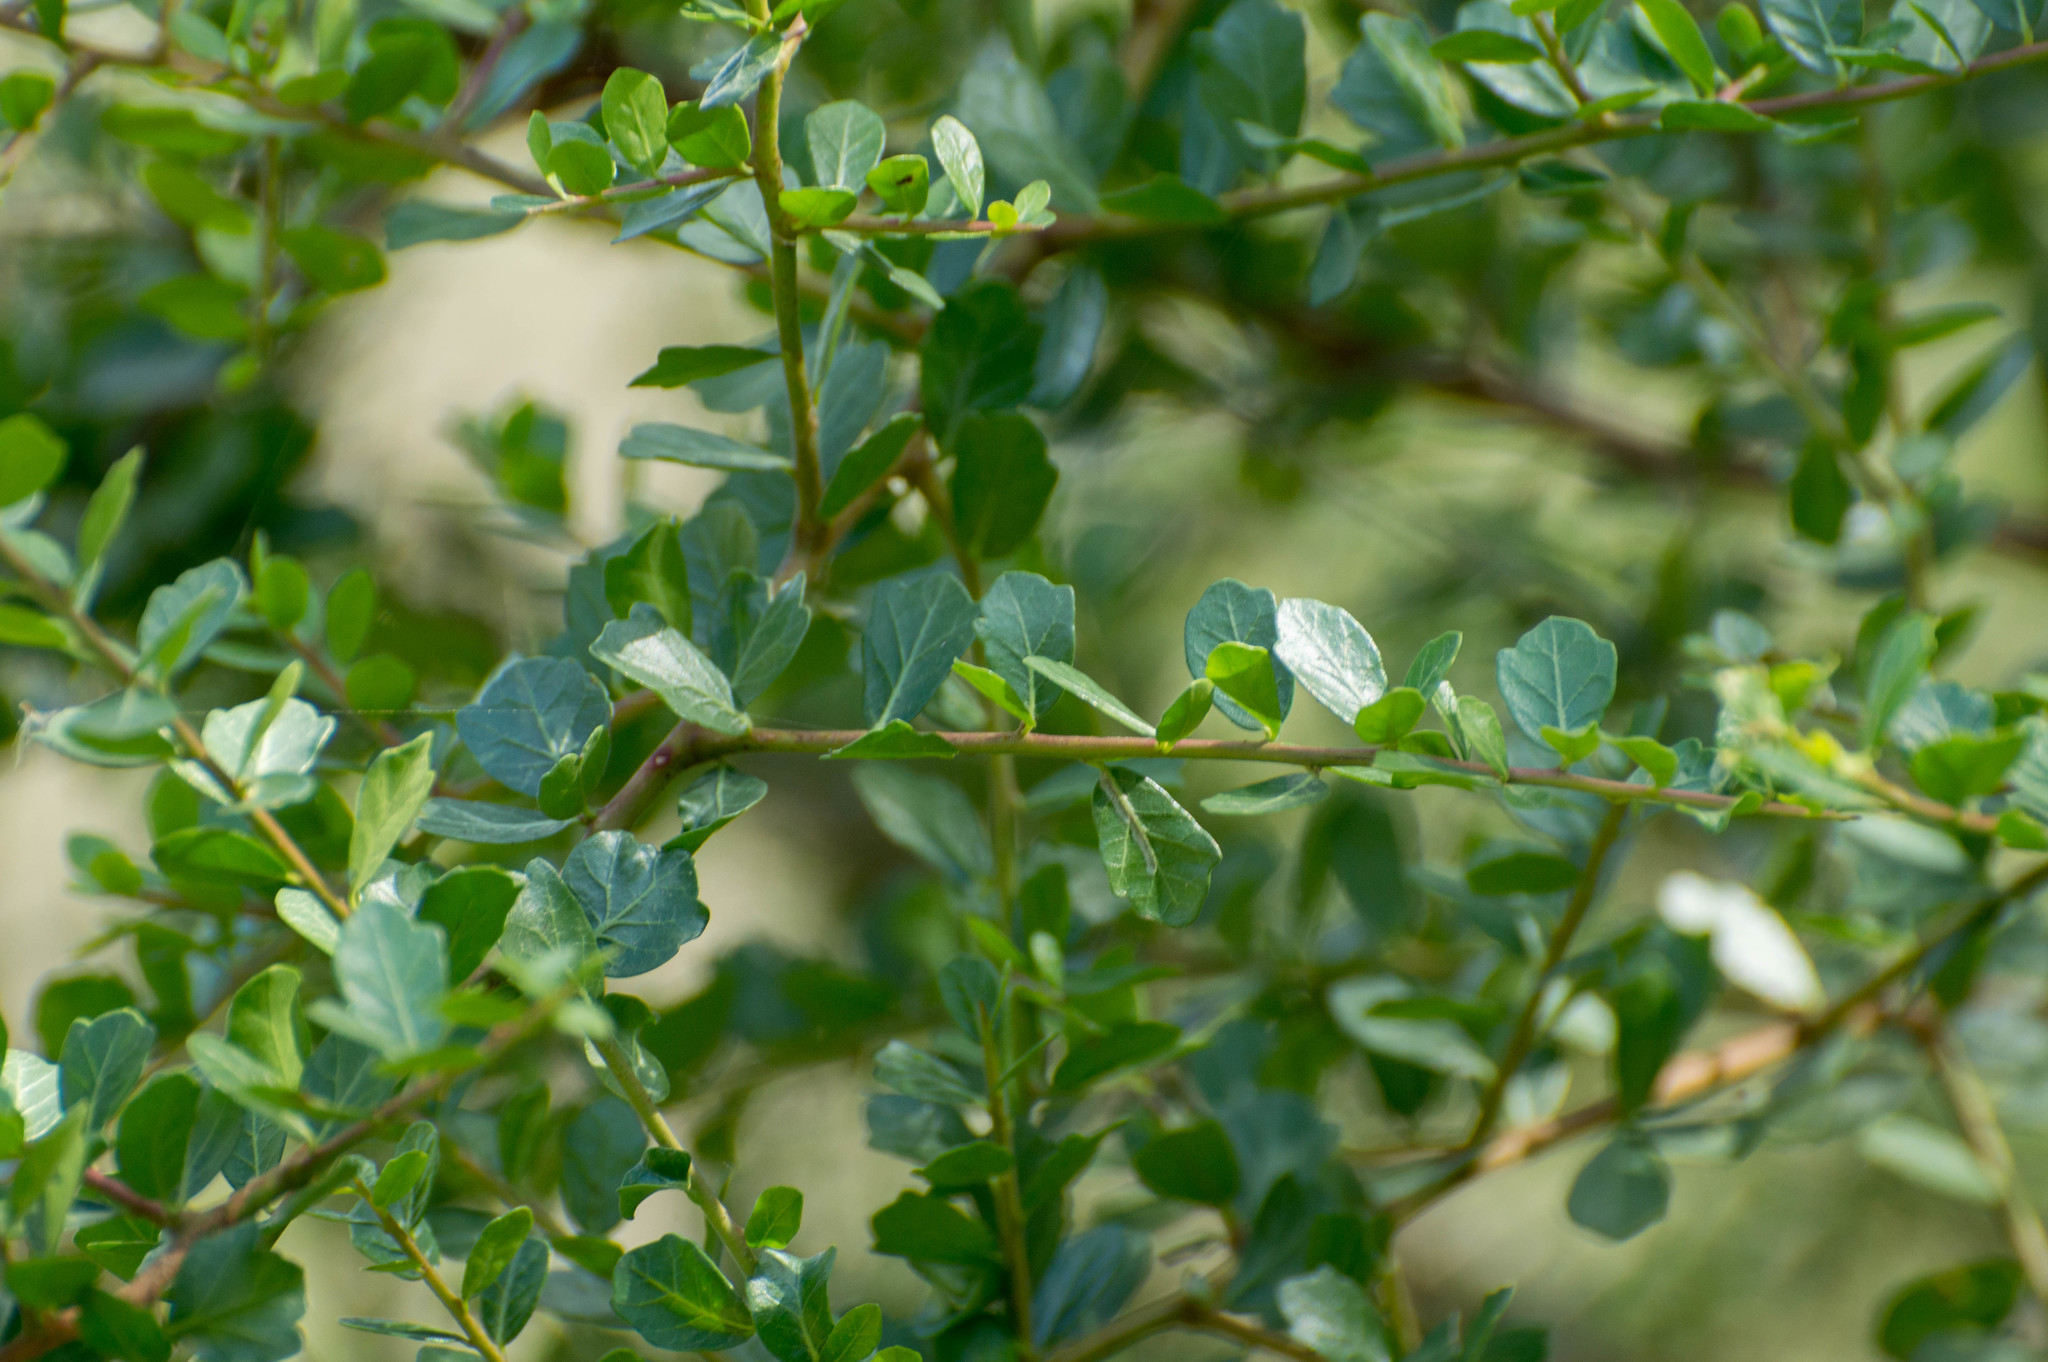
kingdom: Plantae
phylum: Tracheophyta
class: Magnoliopsida
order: Sapindales
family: Anacardiaceae
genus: Schinus
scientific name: Schinus fasciculata
